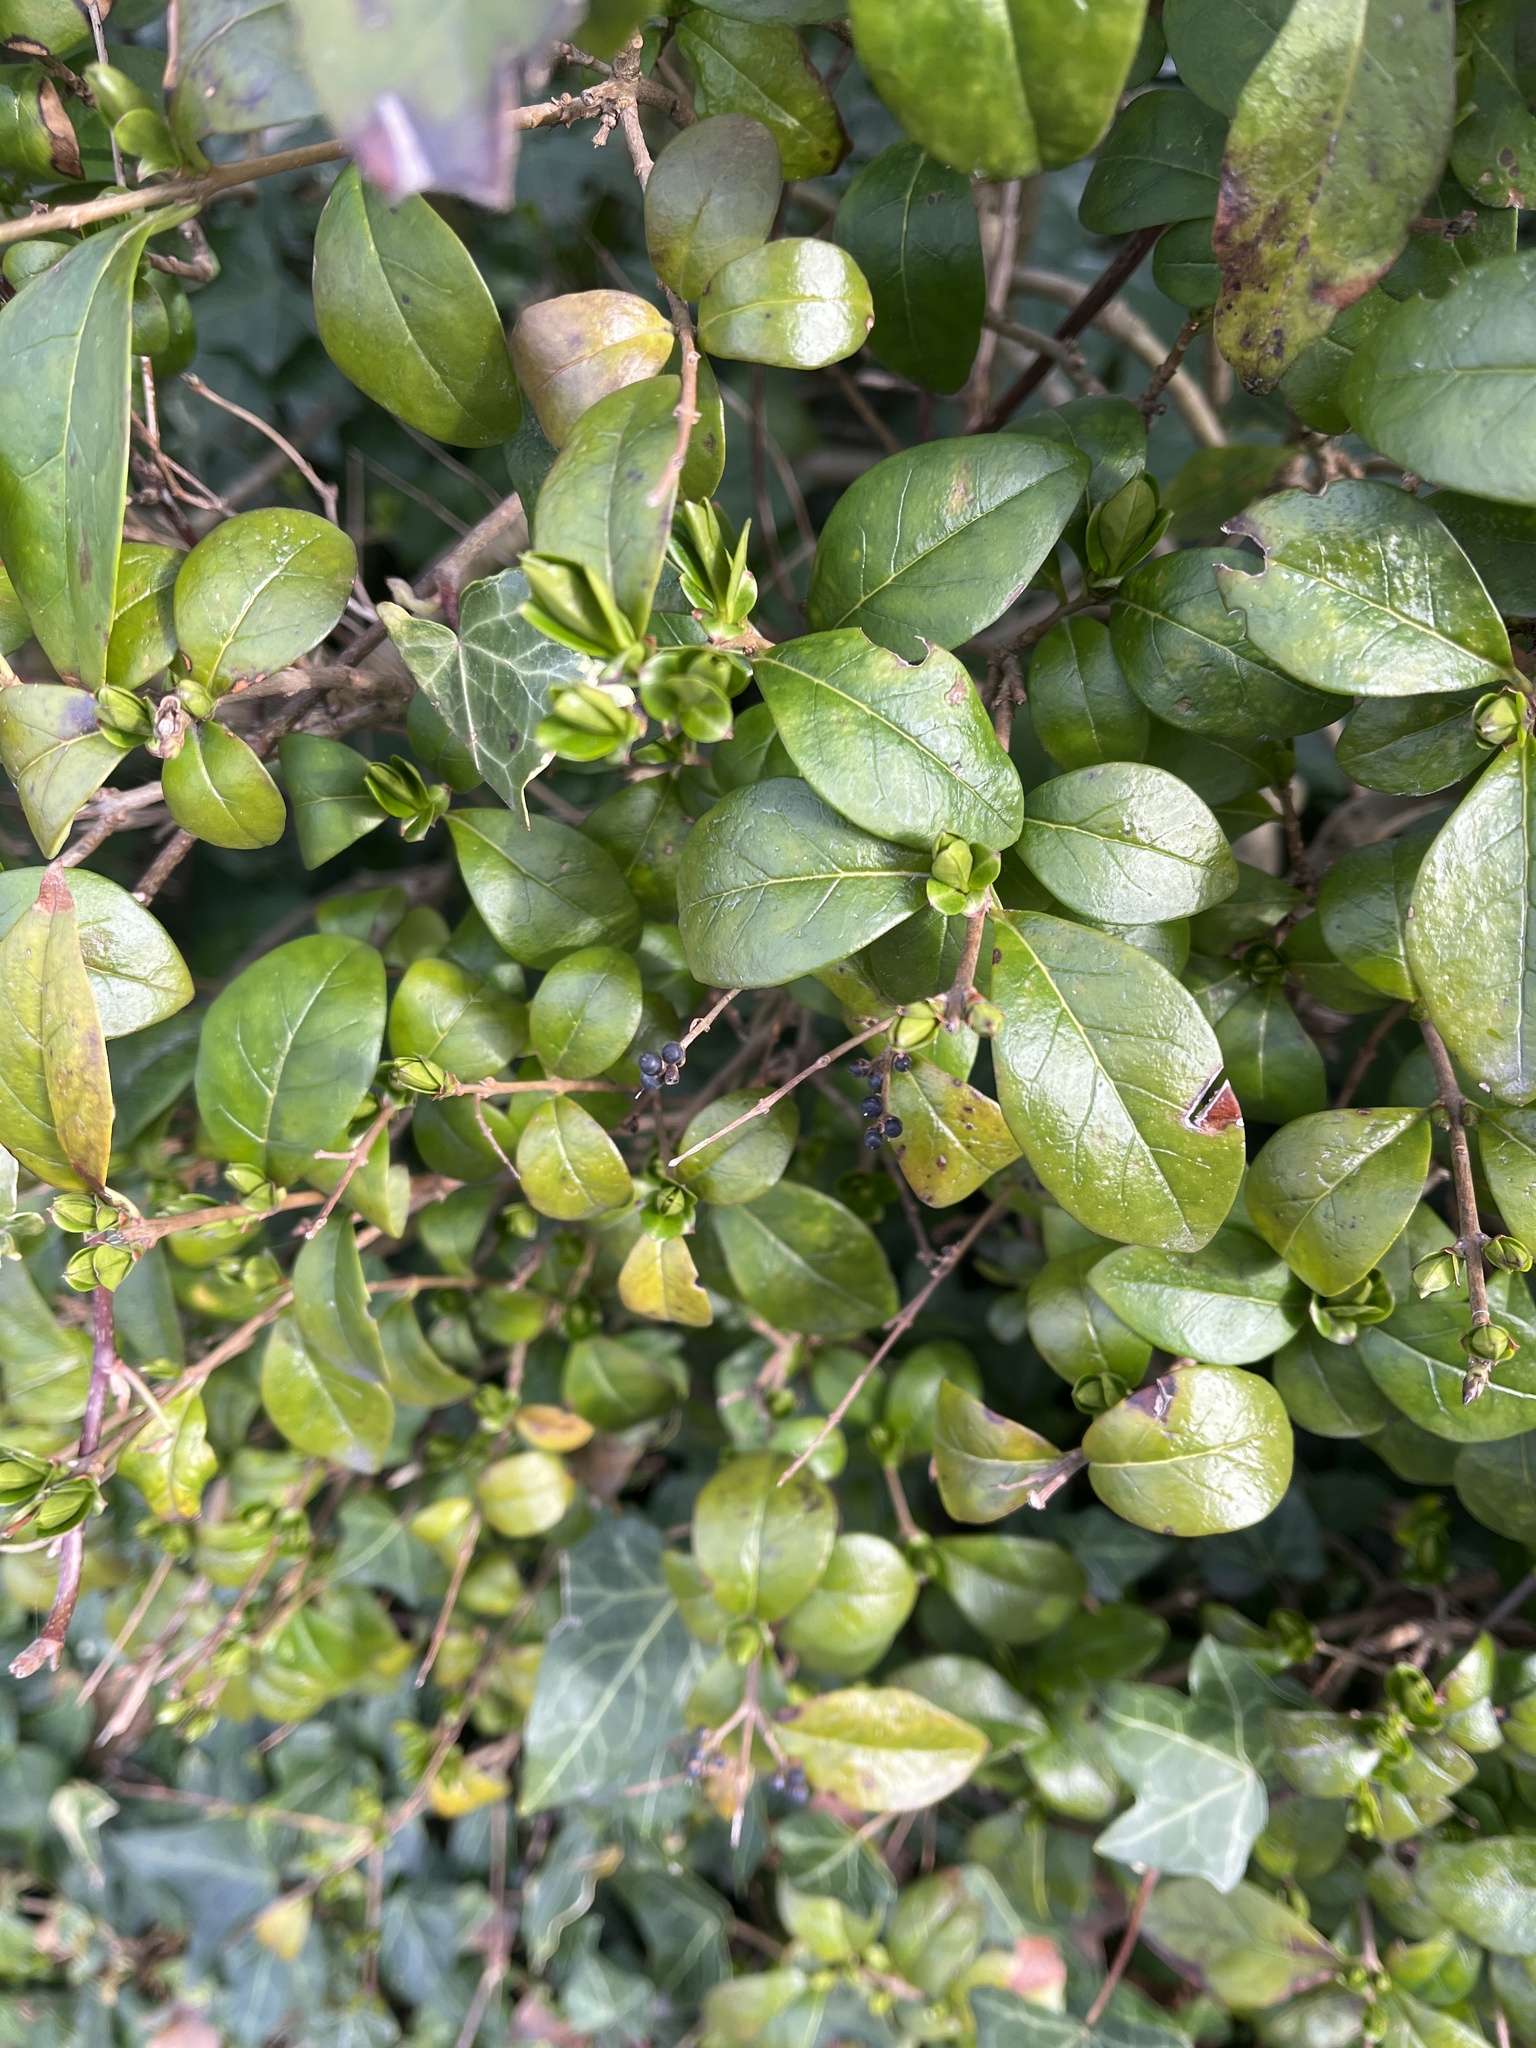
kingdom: Plantae
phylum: Tracheophyta
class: Magnoliopsida
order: Lamiales
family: Oleaceae
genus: Ligustrum
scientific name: Ligustrum ovalifolium
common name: California privet
